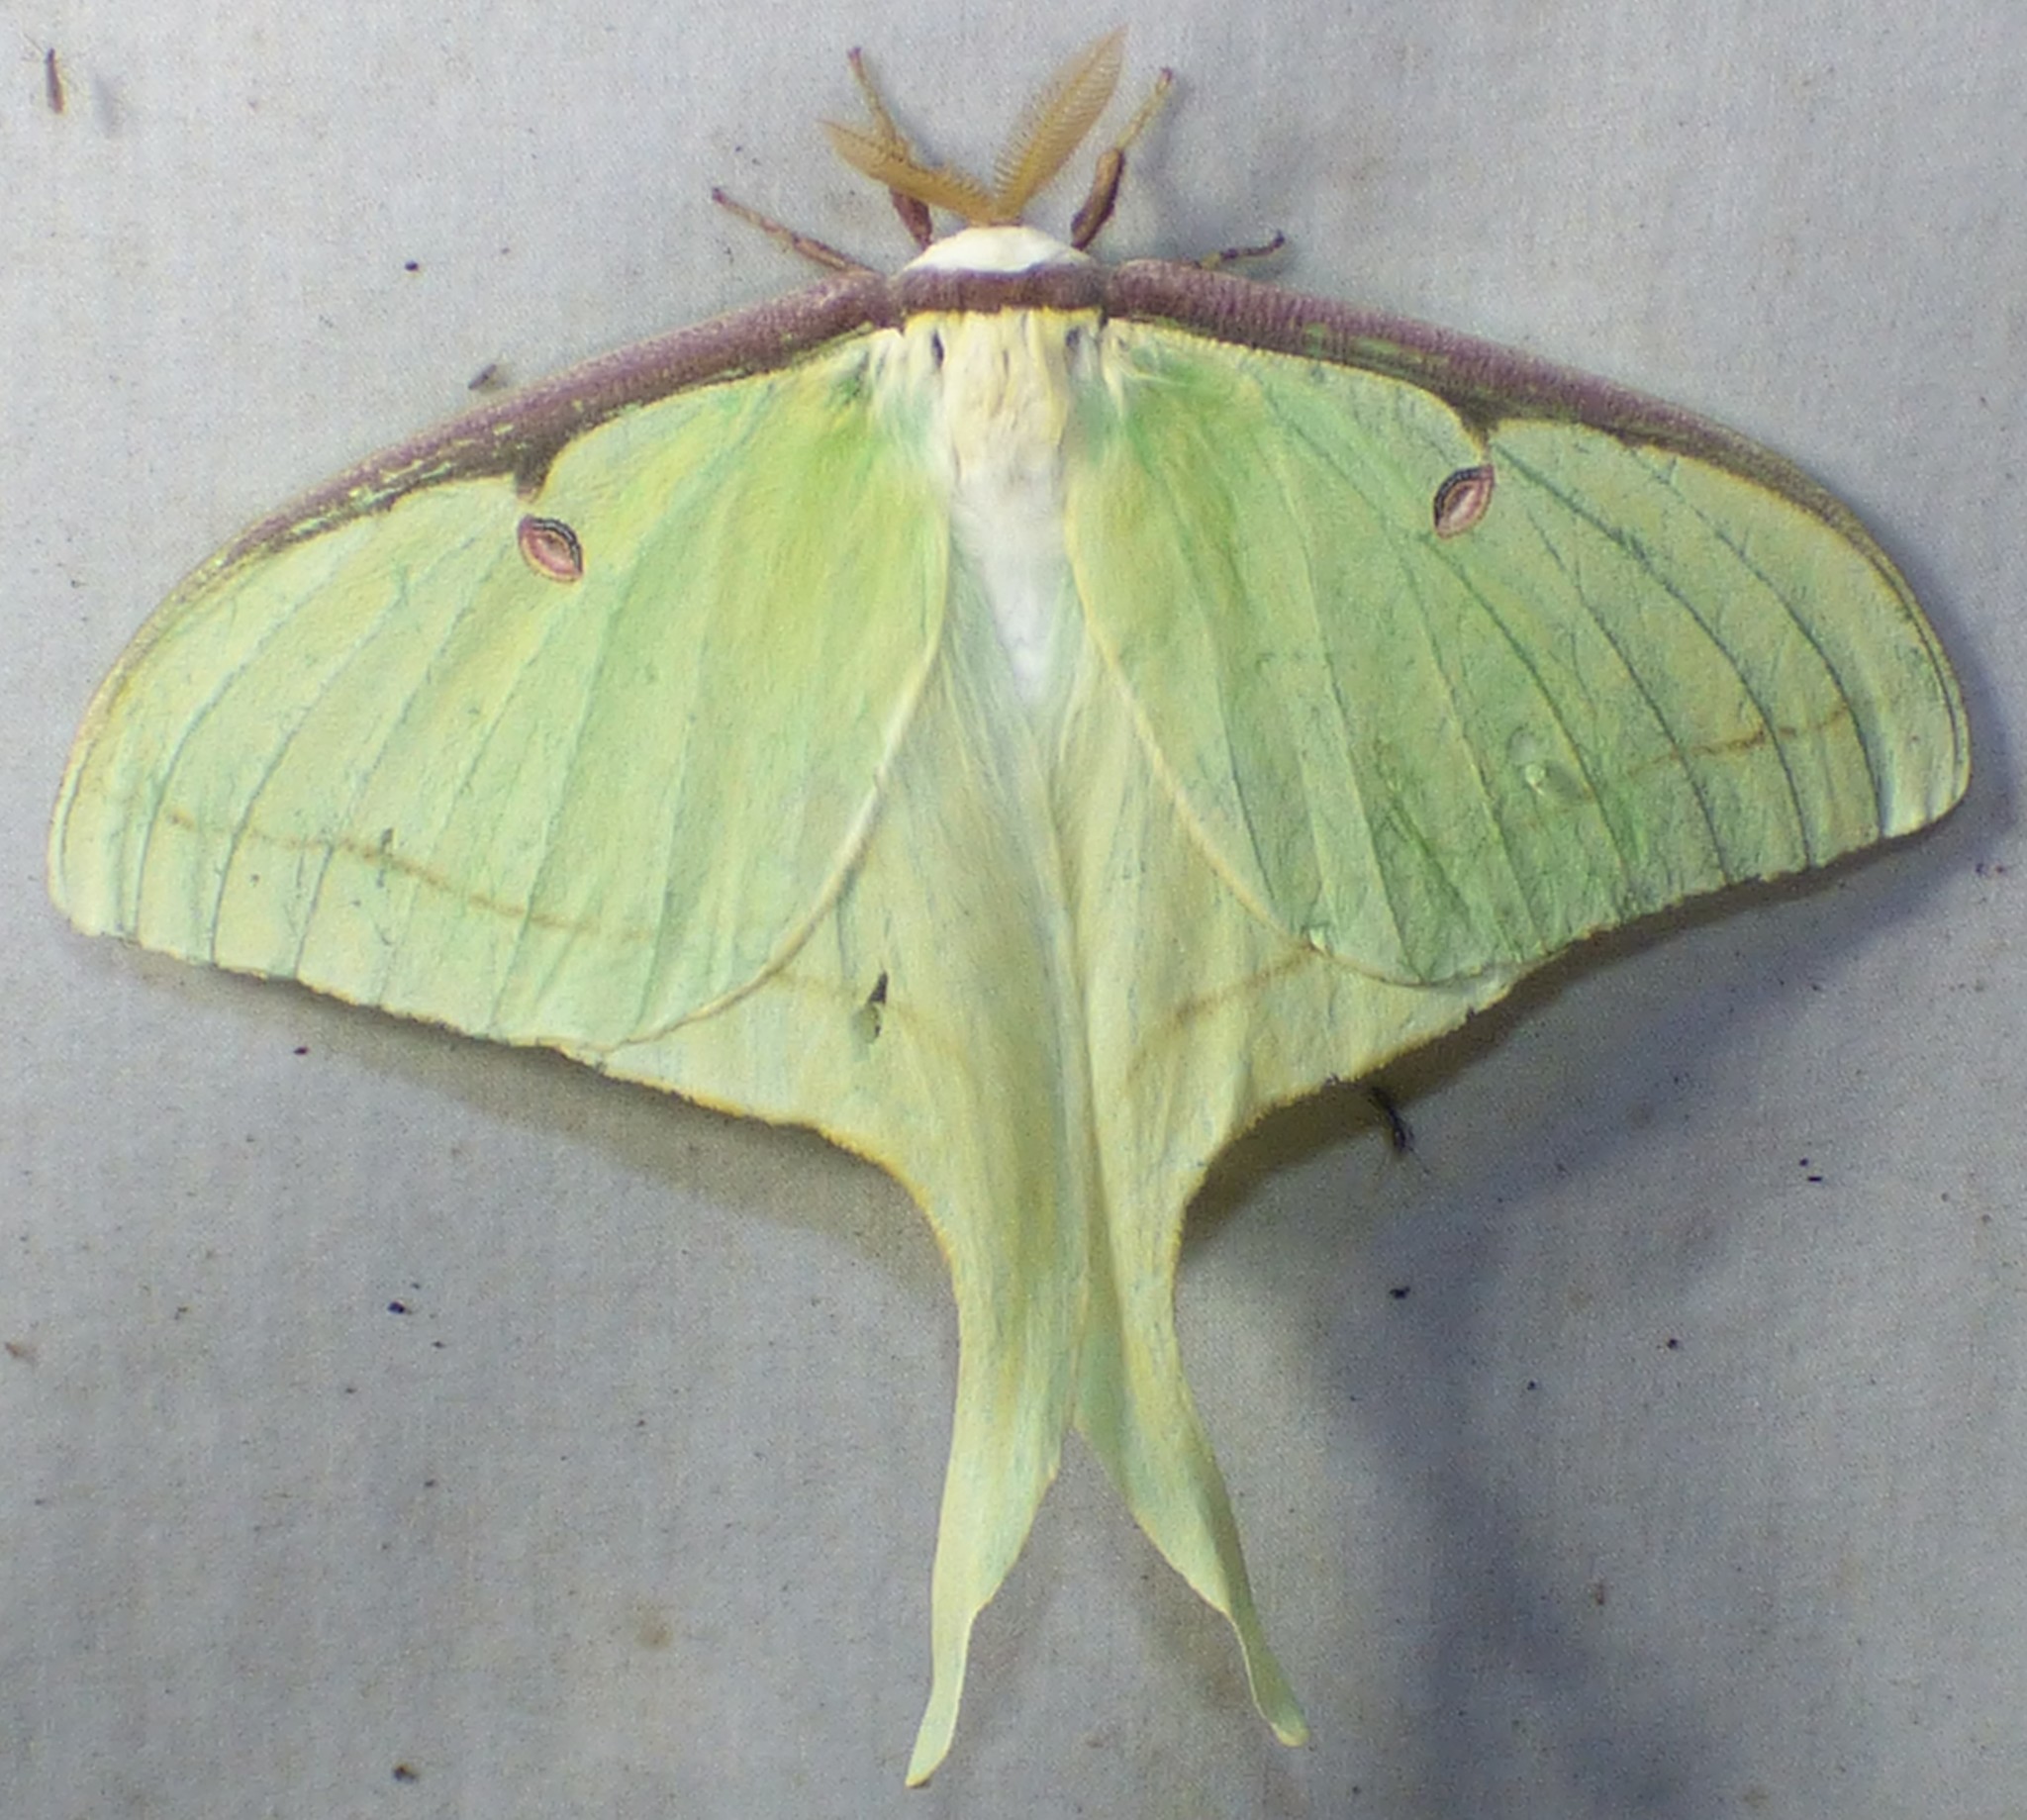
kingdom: Animalia
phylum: Arthropoda
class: Insecta
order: Lepidoptera
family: Saturniidae
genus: Actias
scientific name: Actias luna
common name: Luna moth
